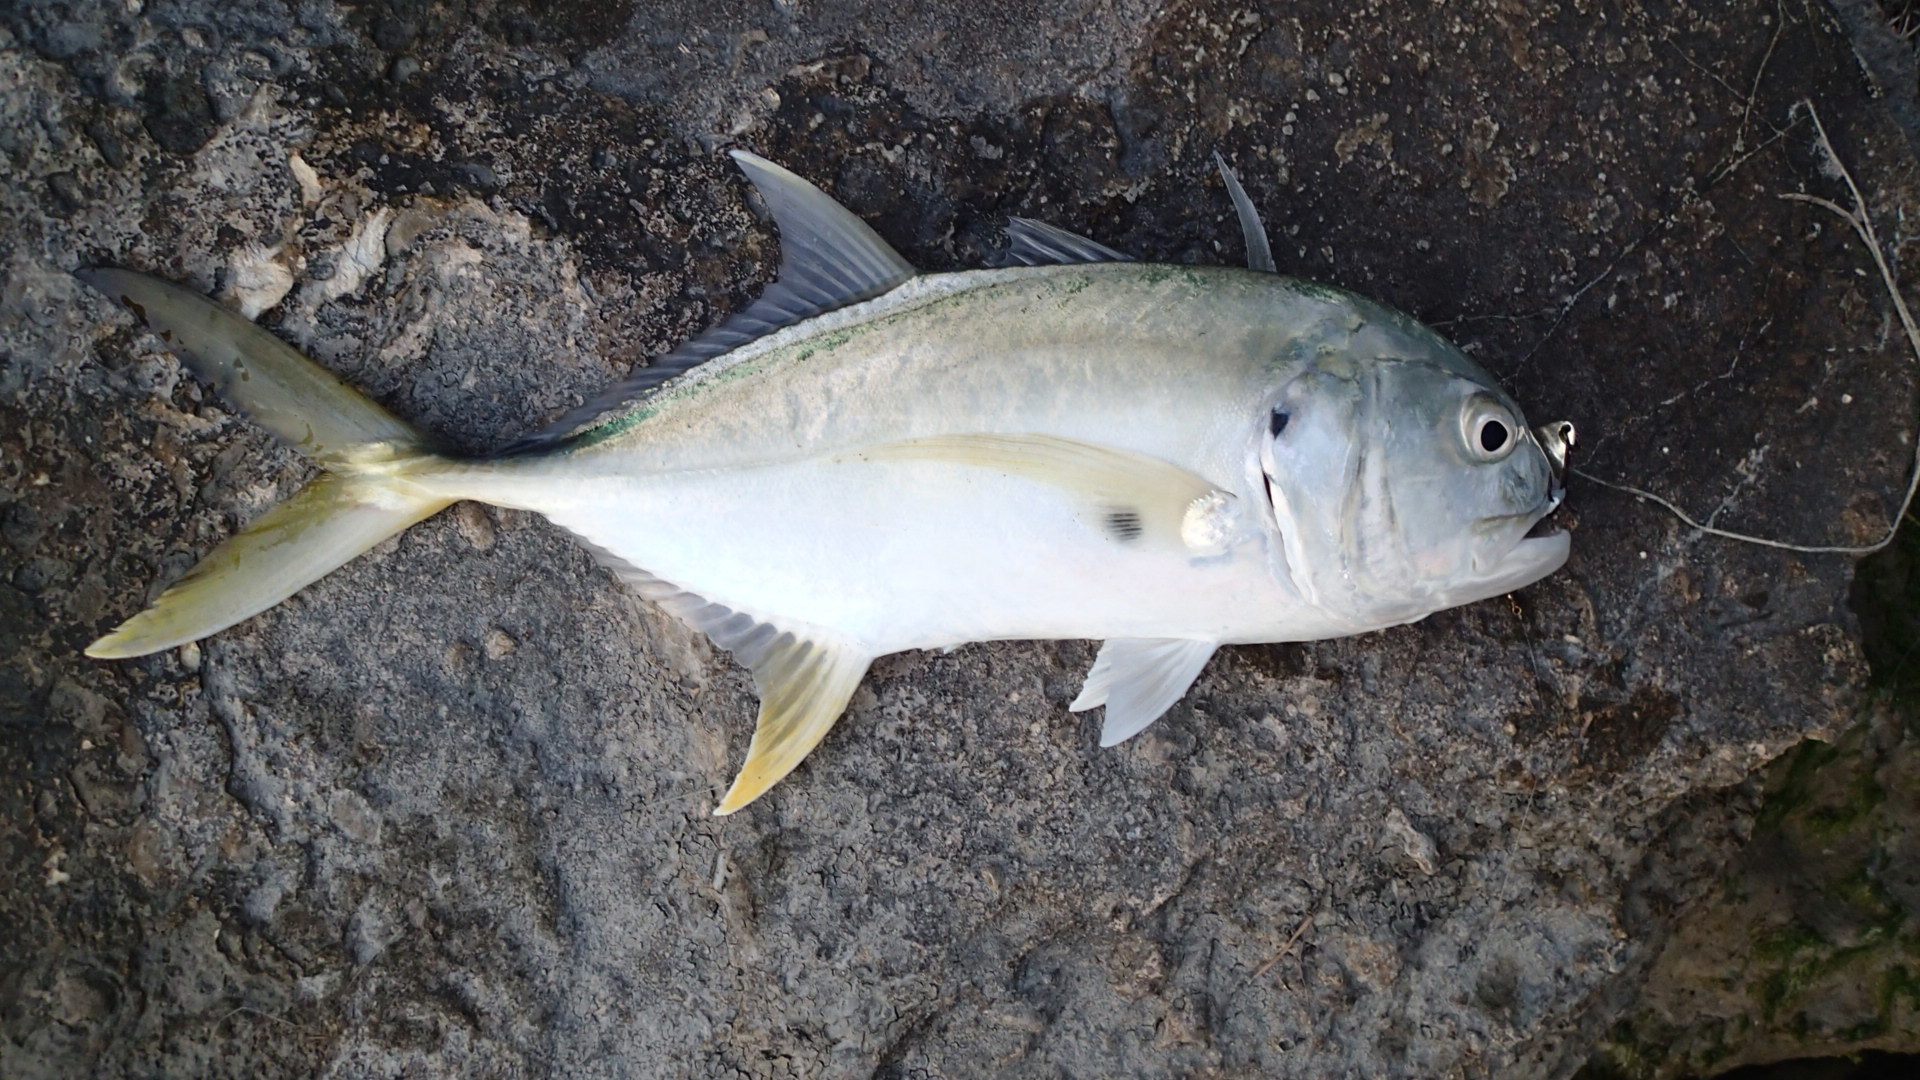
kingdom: Animalia
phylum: Chordata
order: Perciformes
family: Carangidae
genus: Caranx
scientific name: Caranx hippos
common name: Common jack
